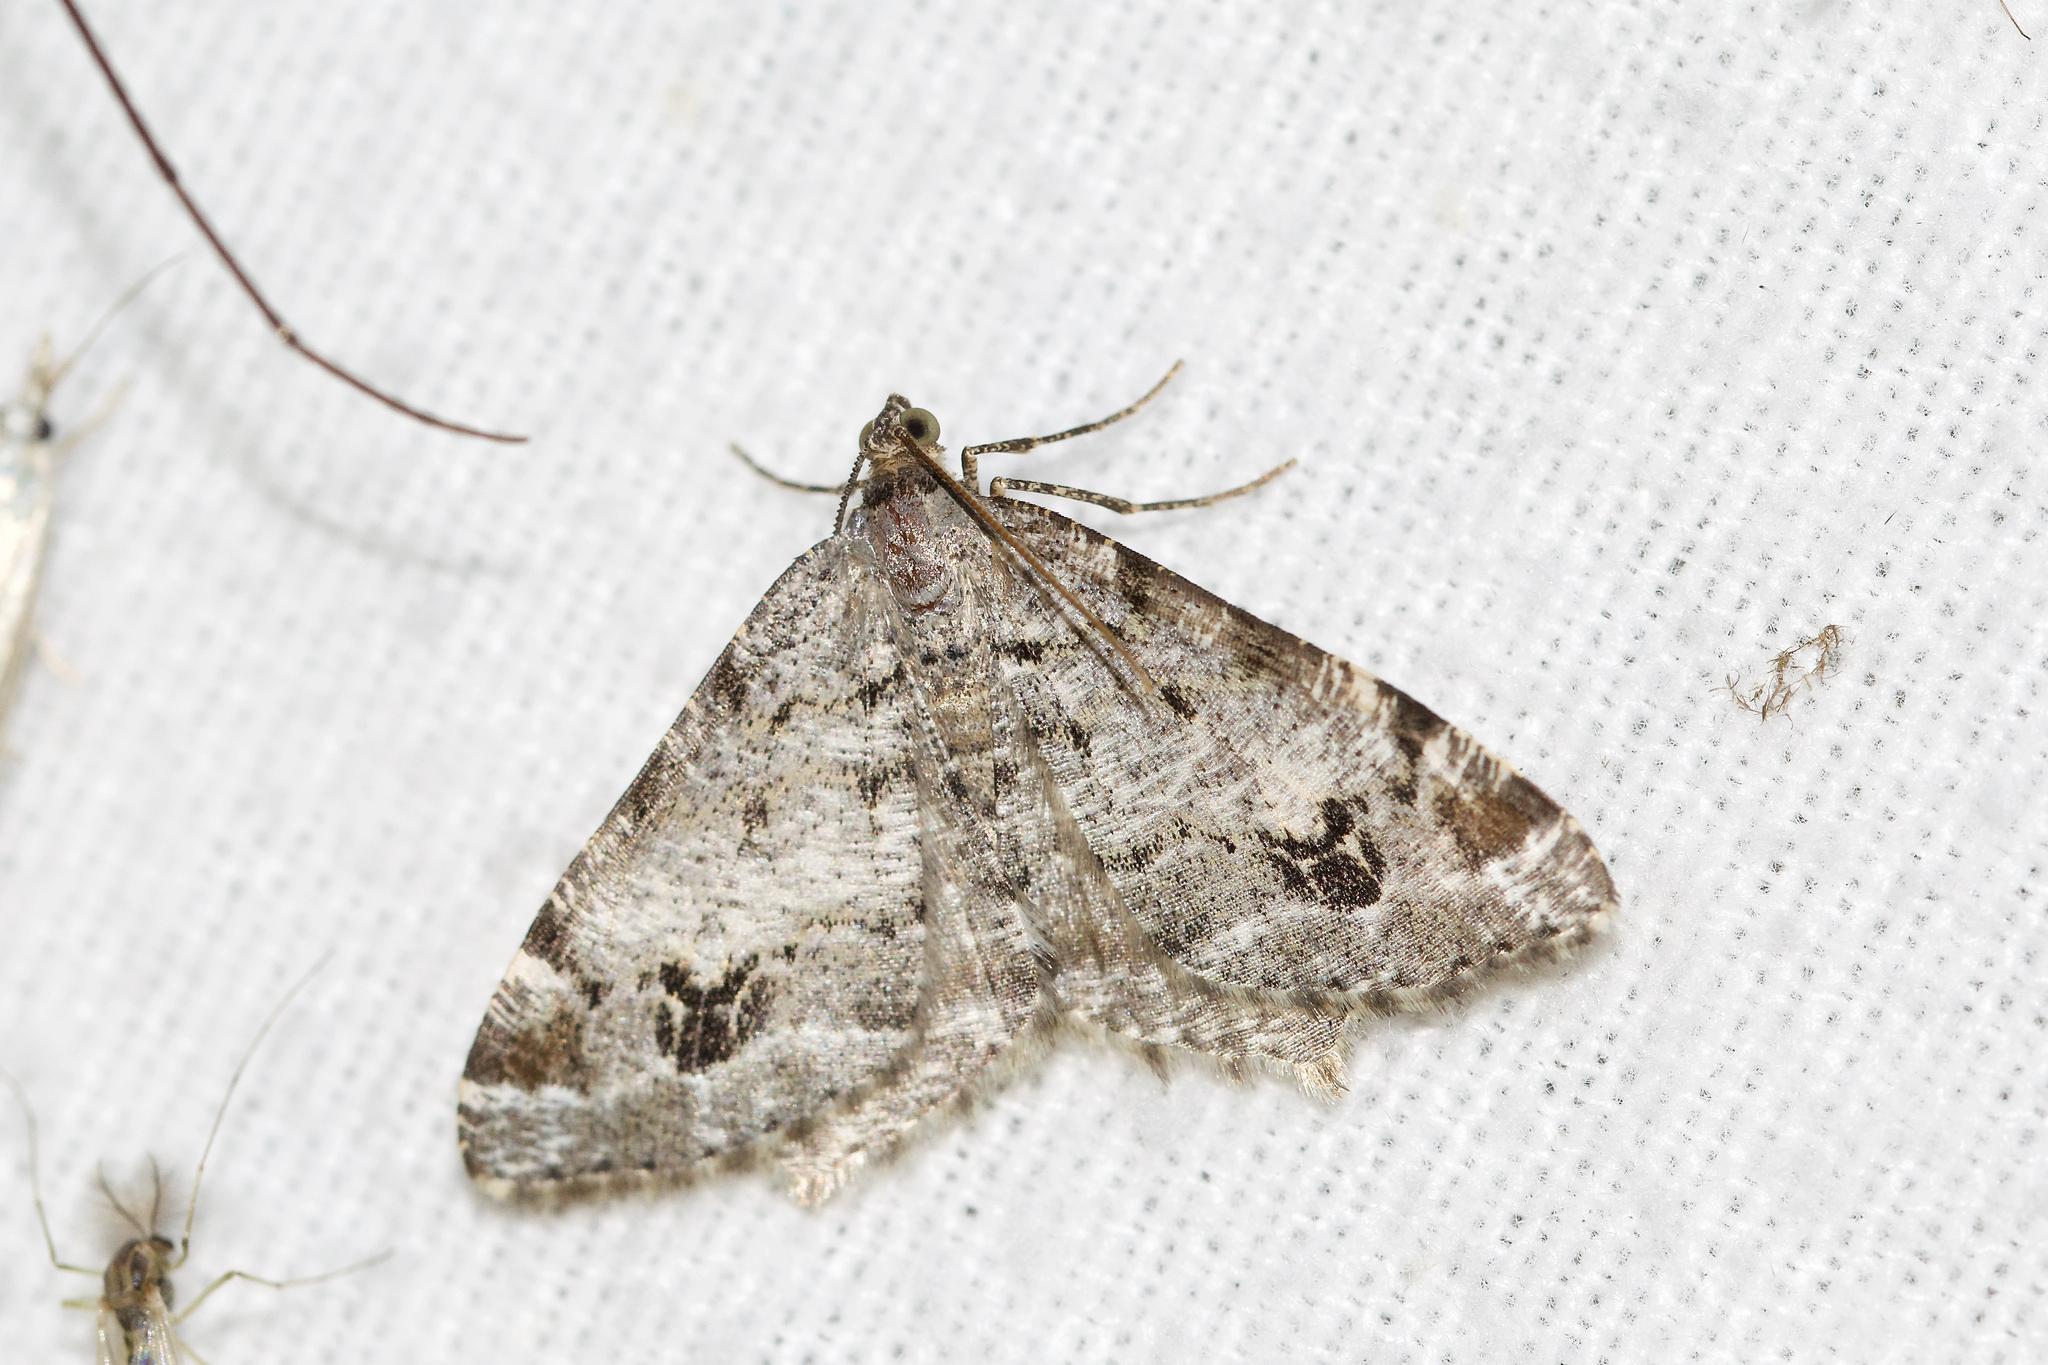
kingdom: Animalia
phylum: Arthropoda
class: Insecta
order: Lepidoptera
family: Geometridae
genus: Macaria
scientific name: Macaria pinistrobata
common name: White pine angle
